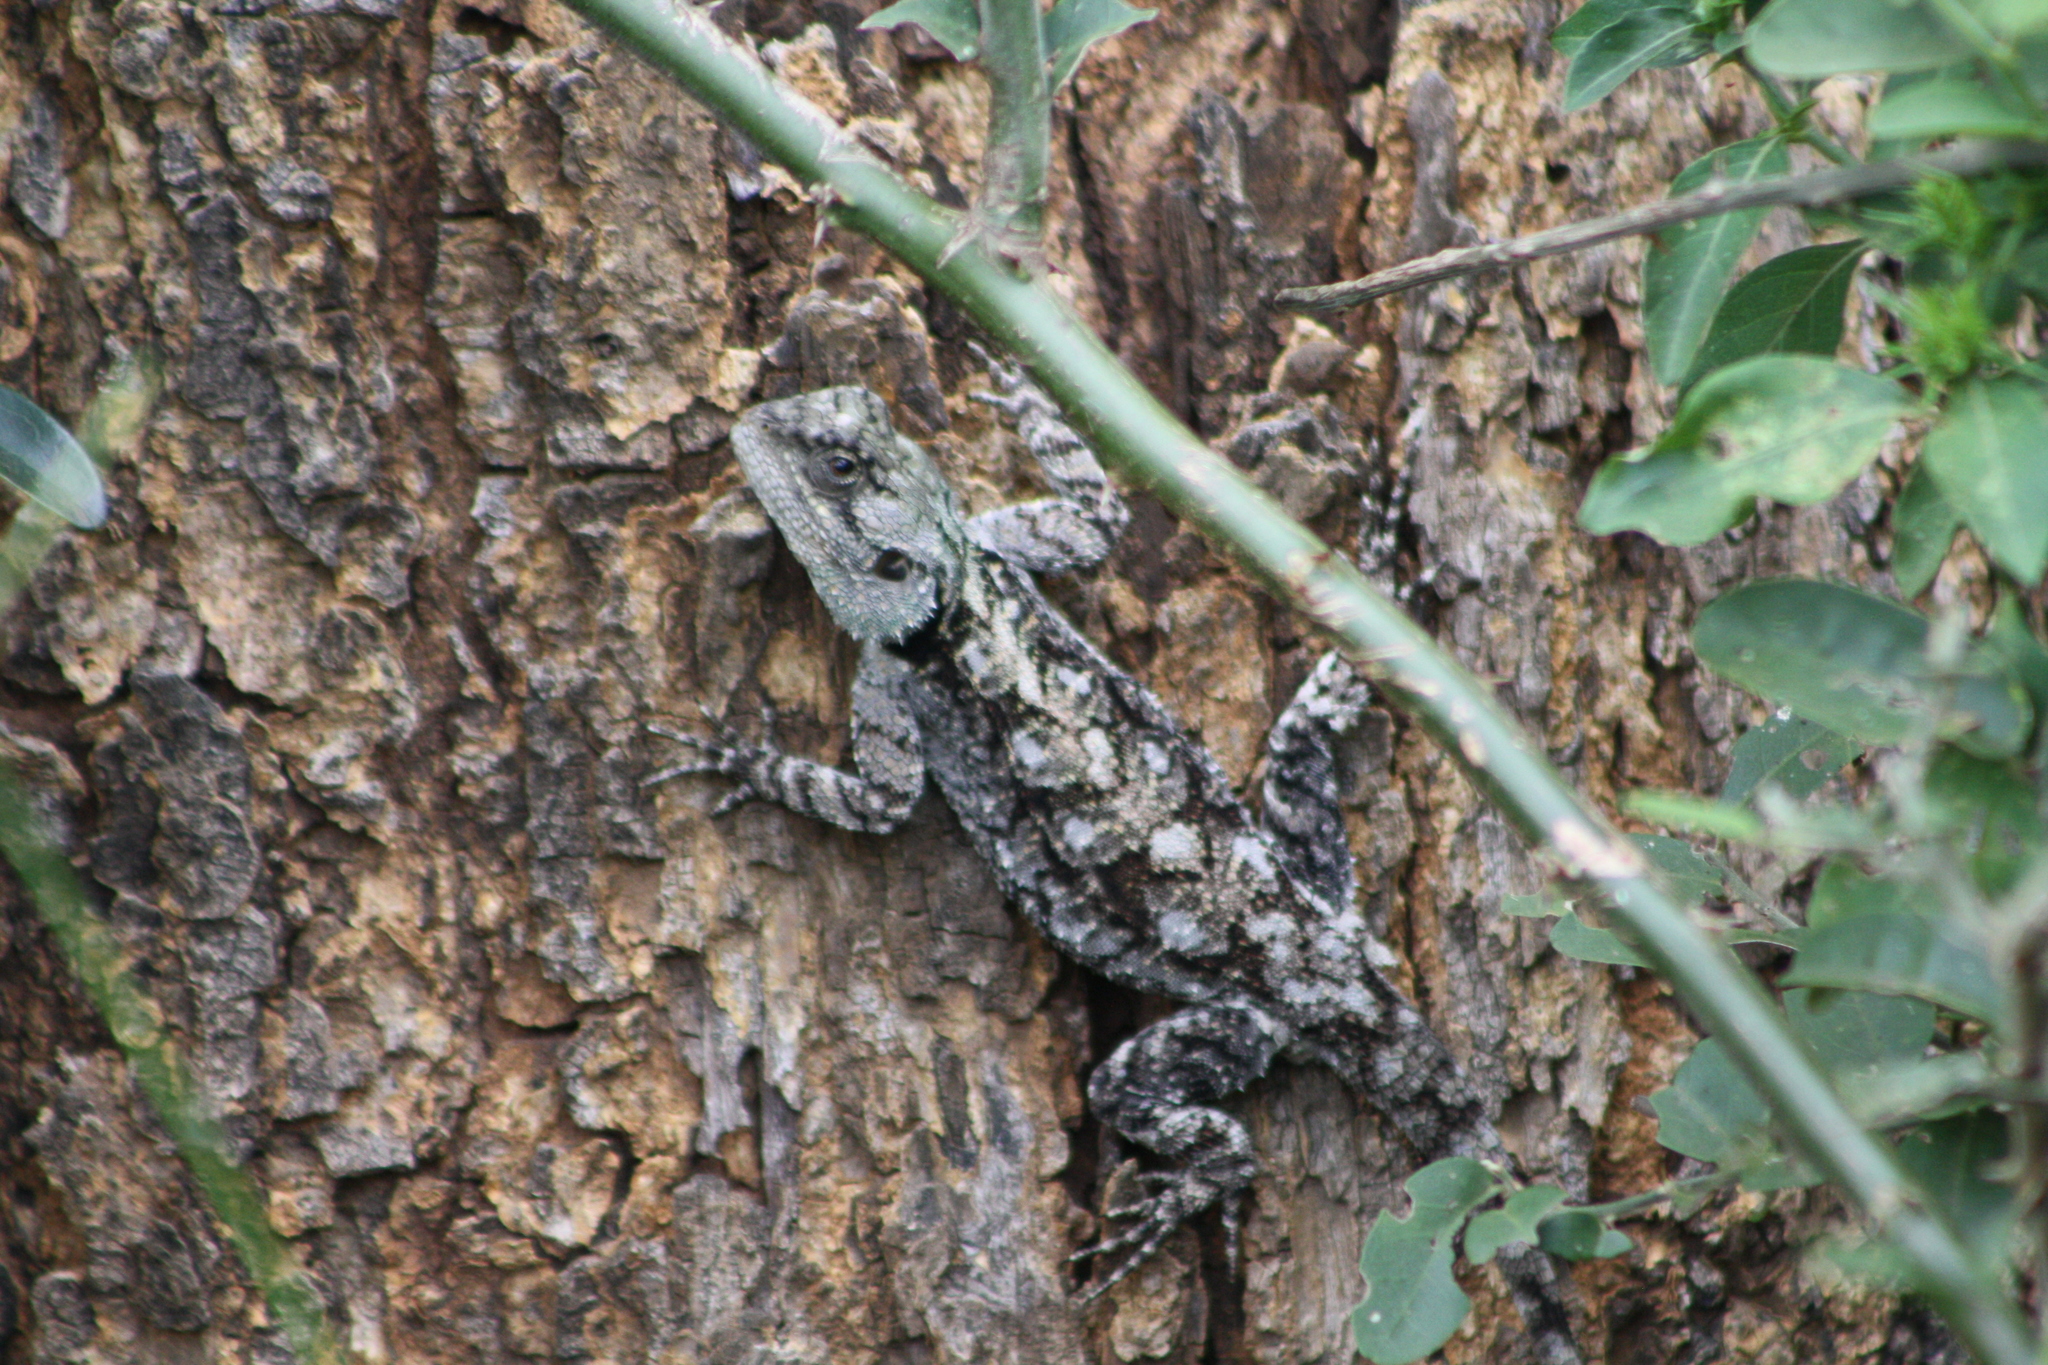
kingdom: Animalia
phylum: Chordata
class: Squamata
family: Agamidae
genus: Acanthocercus
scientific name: Acanthocercus atricollis
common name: Southern tree agama
